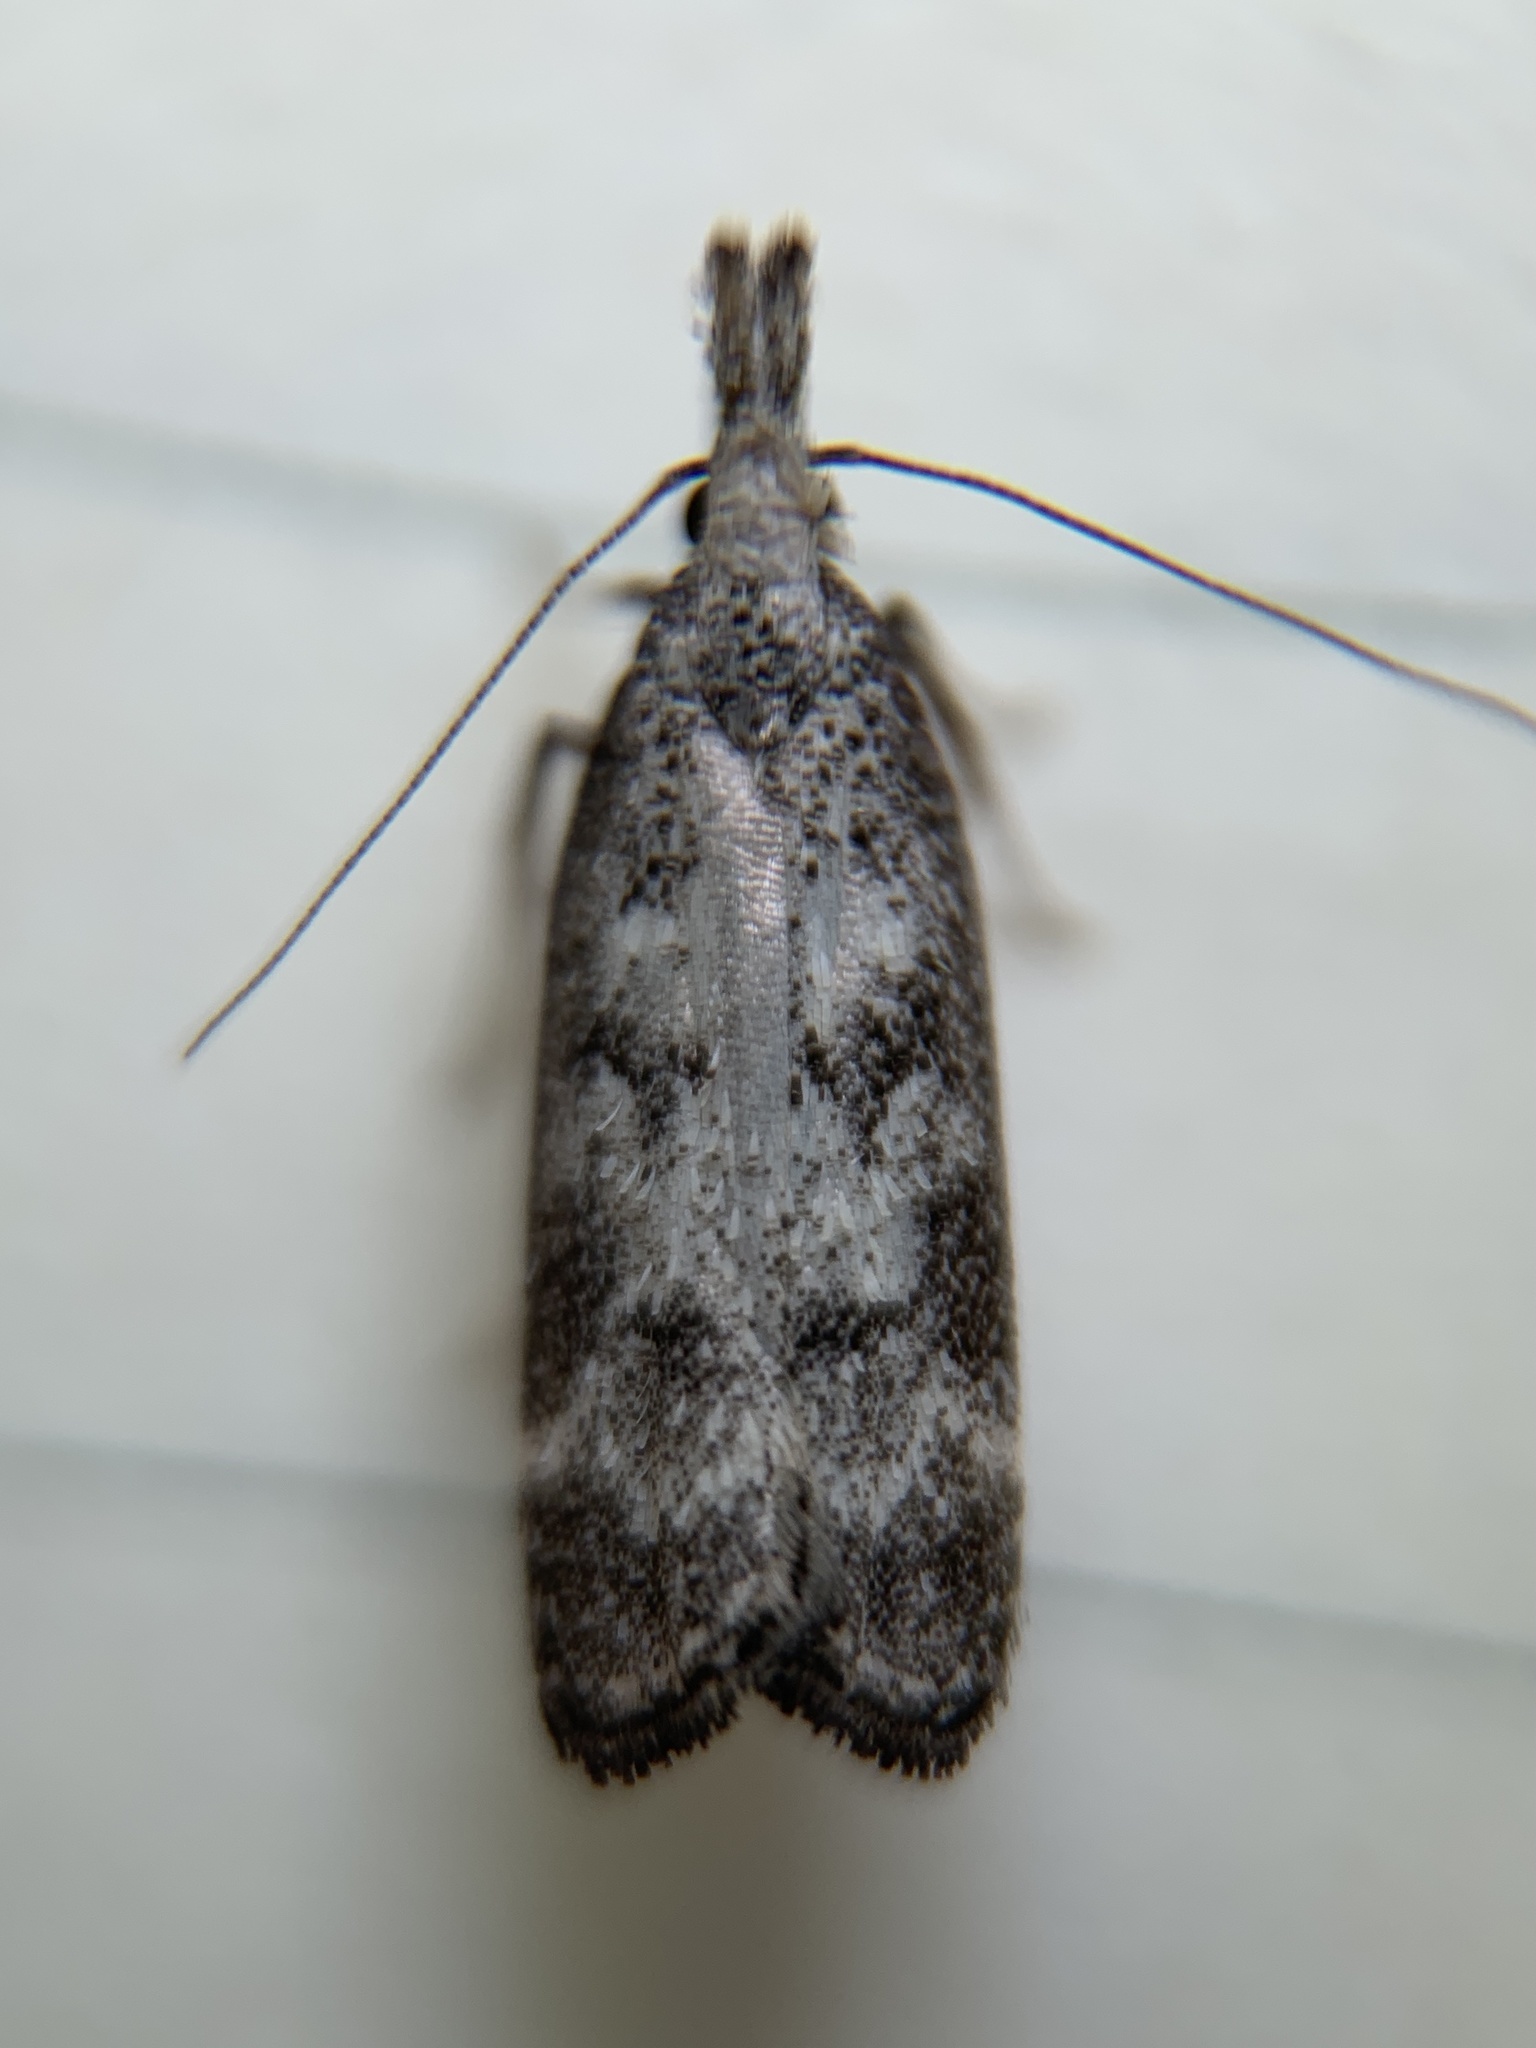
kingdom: Animalia
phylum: Arthropoda
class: Insecta
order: Lepidoptera
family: Gelechiidae
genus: Dichomeris
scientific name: Dichomeris inversella
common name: Inverse dichomeris moth
